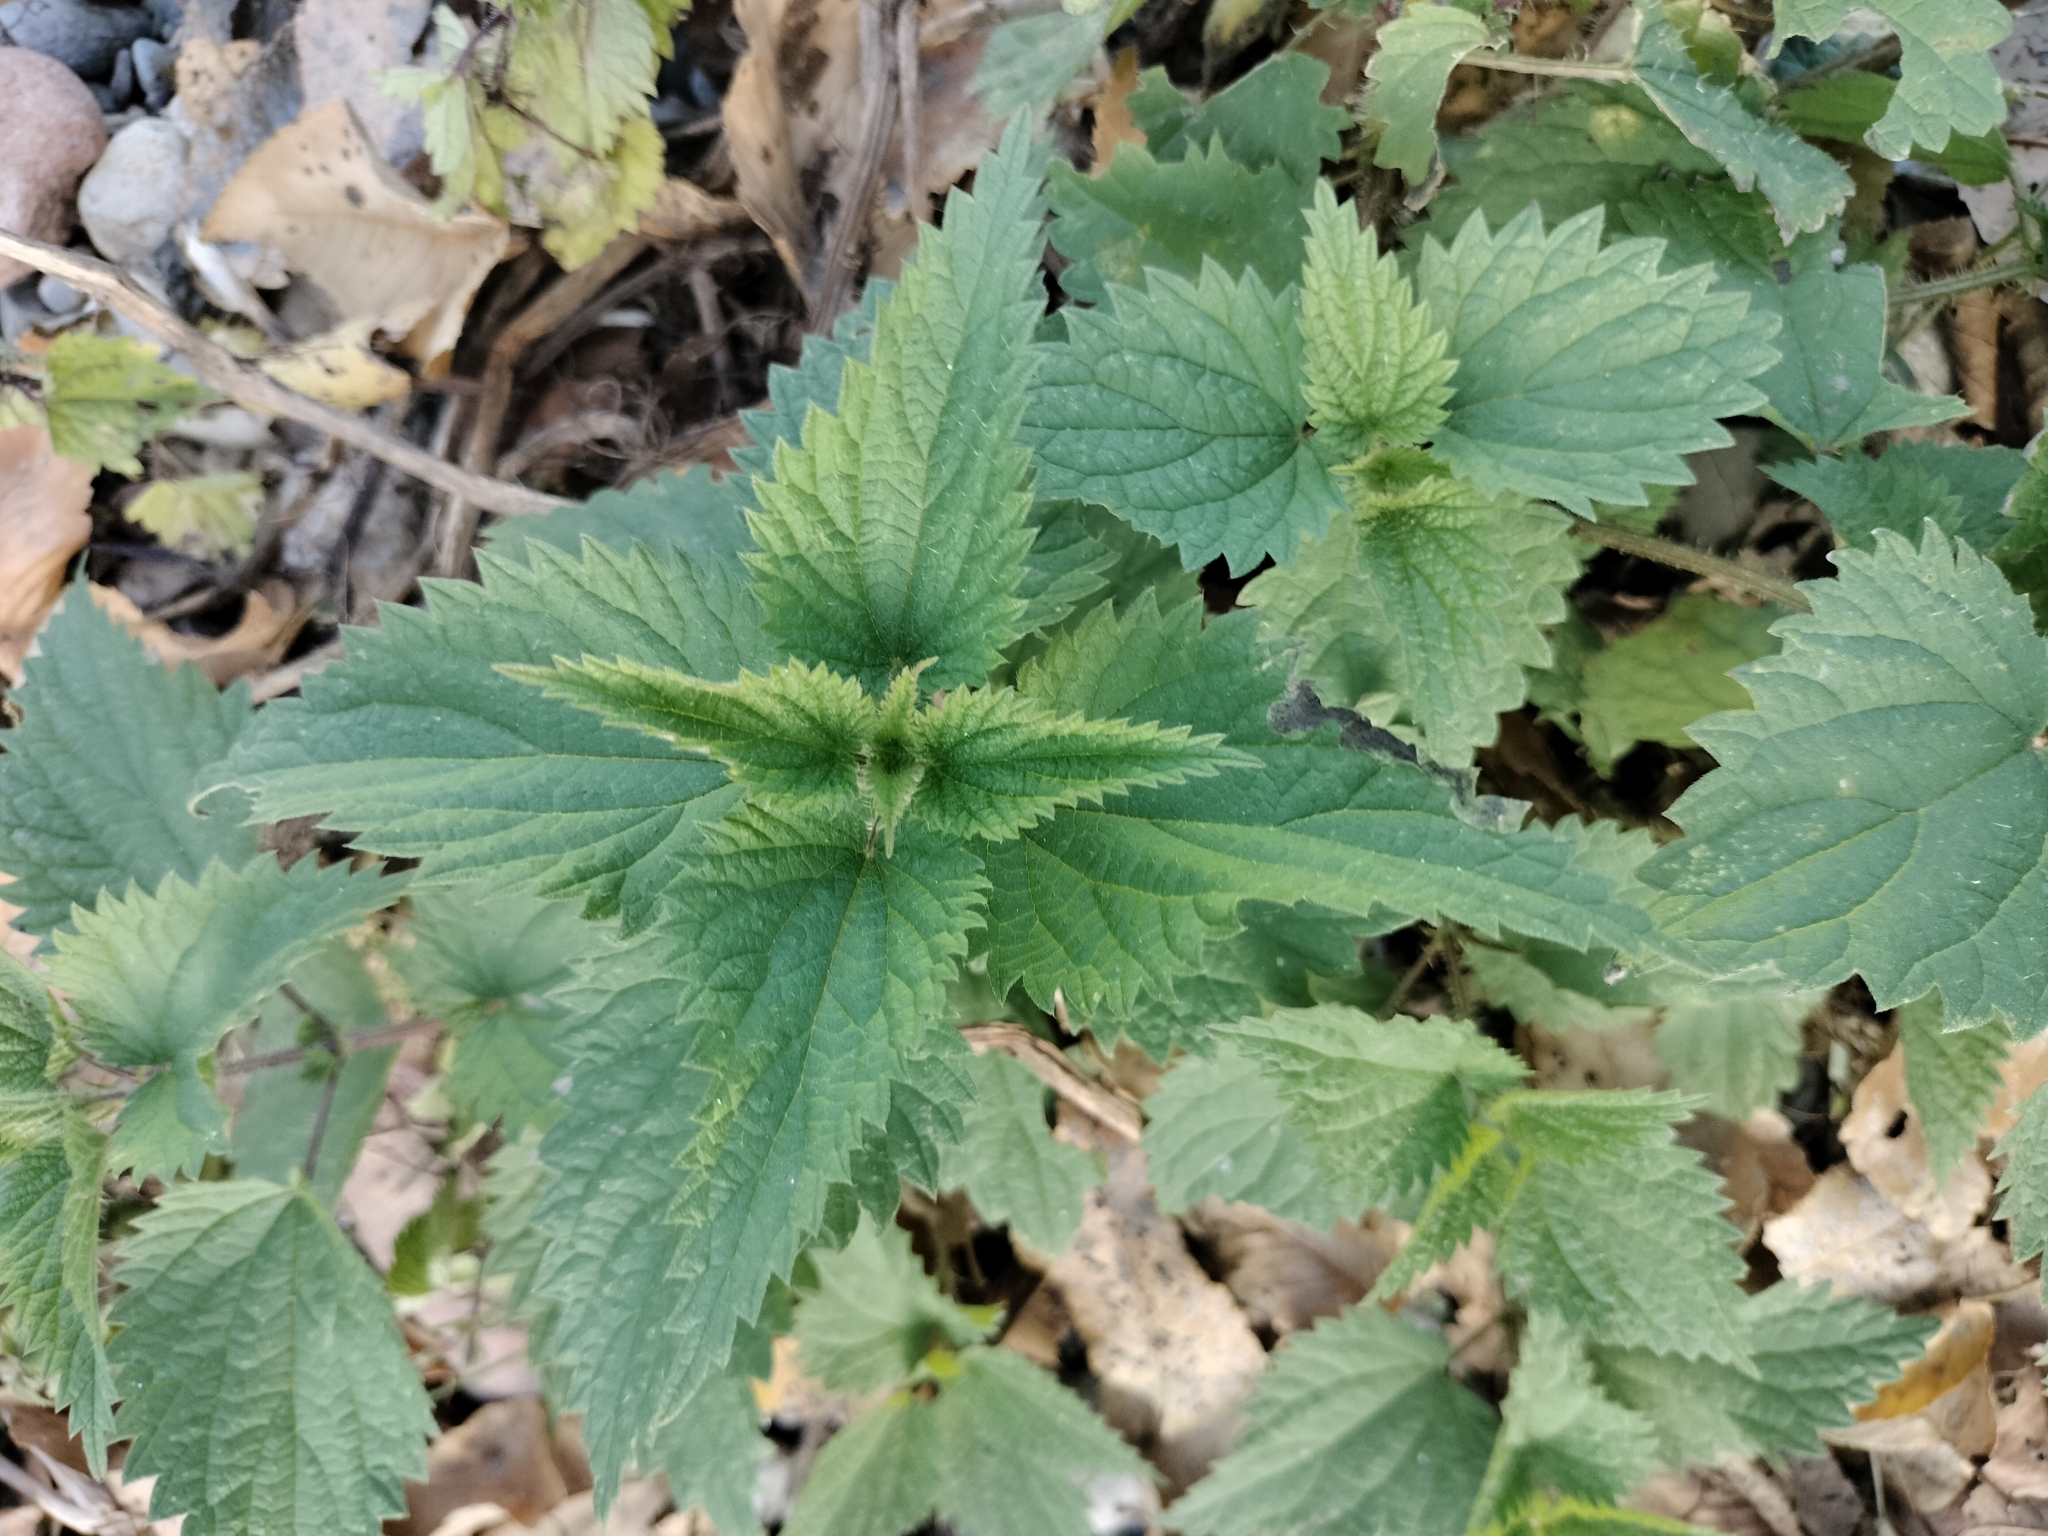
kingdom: Plantae
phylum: Tracheophyta
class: Magnoliopsida
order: Rosales
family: Urticaceae
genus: Urtica
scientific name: Urtica dioica
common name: Common nettle
